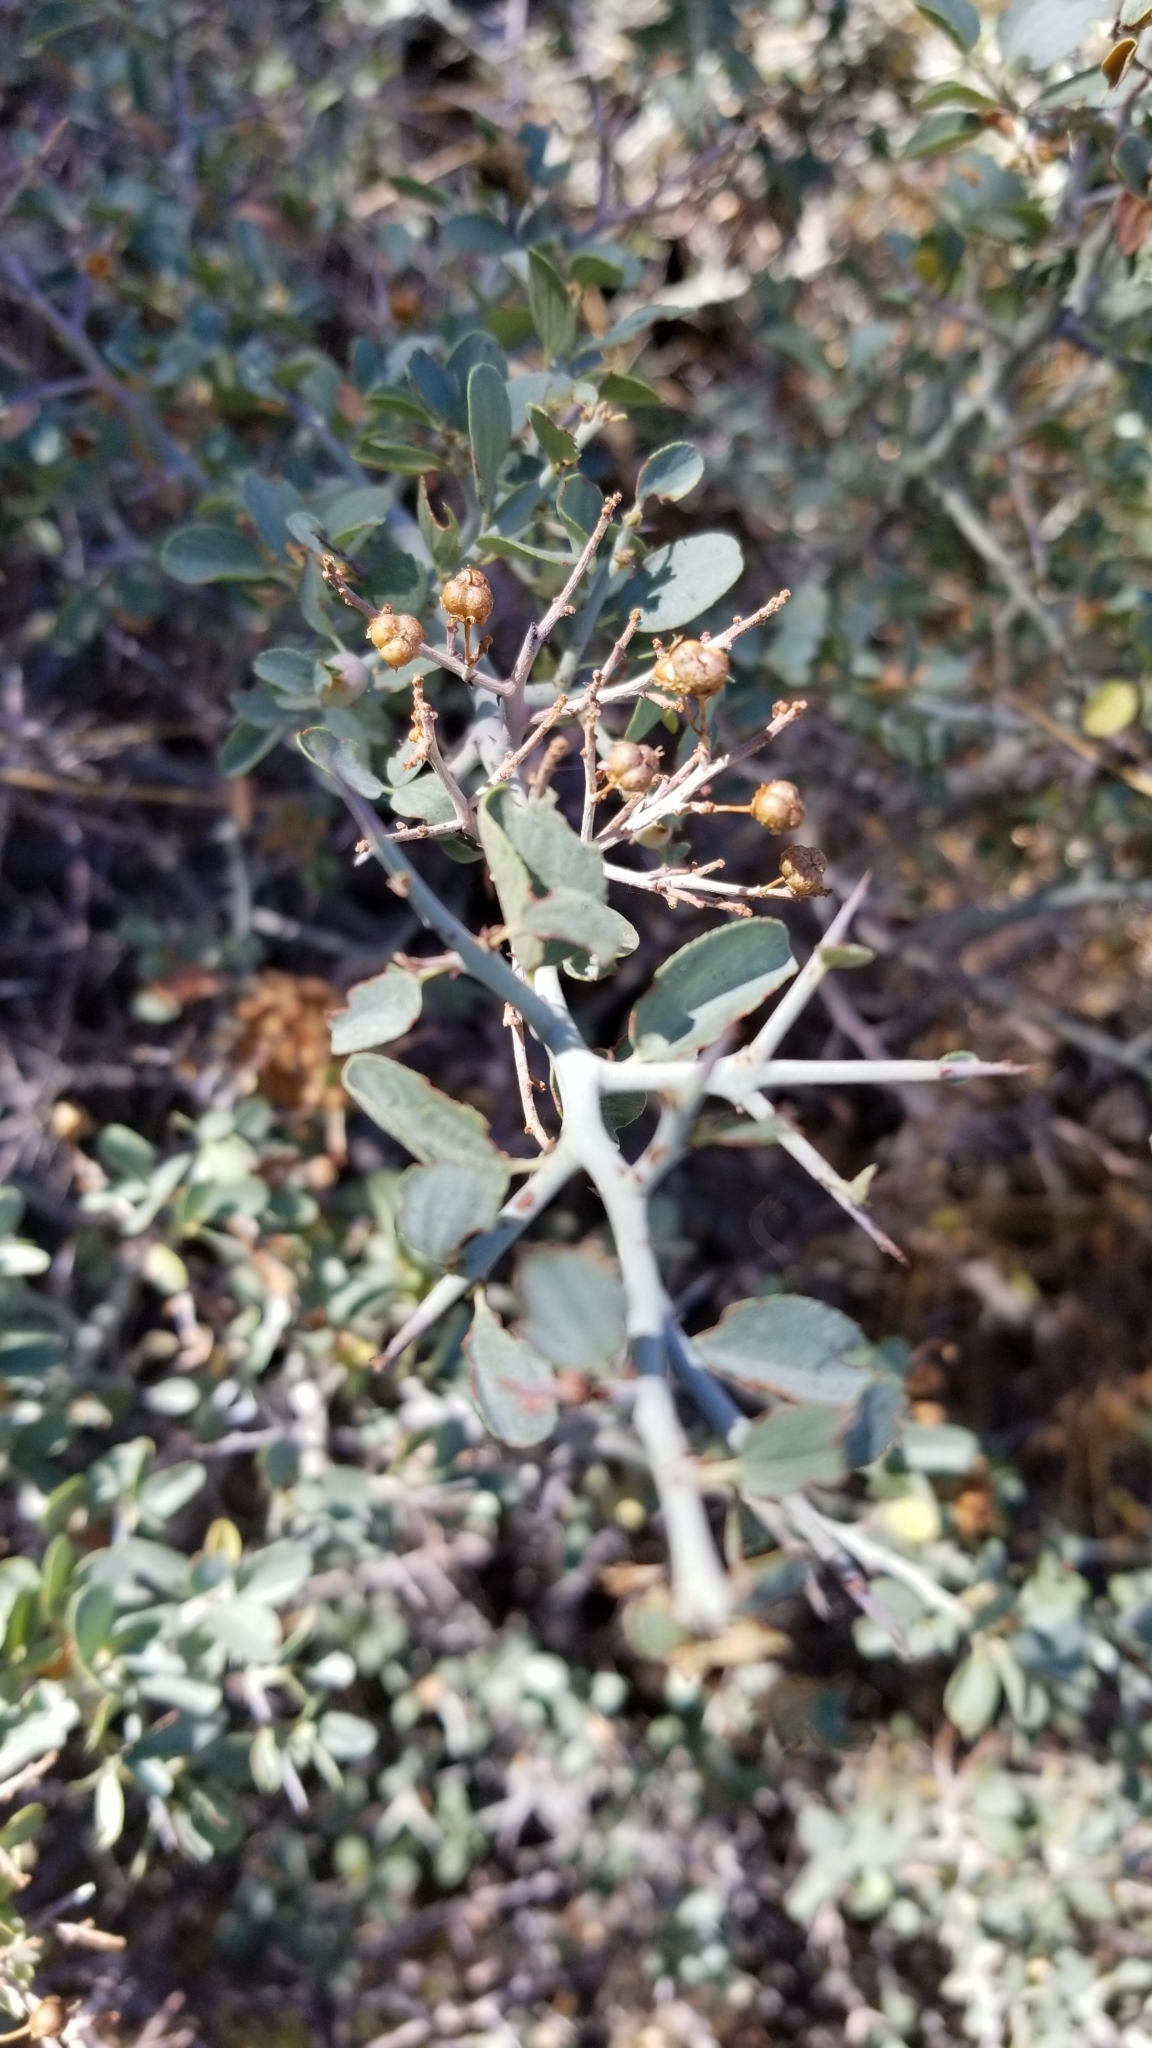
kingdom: Plantae
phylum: Tracheophyta
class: Magnoliopsida
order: Rosales
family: Rhamnaceae
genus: Ceanothus
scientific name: Ceanothus cordulatus
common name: Mountain whitethorn
